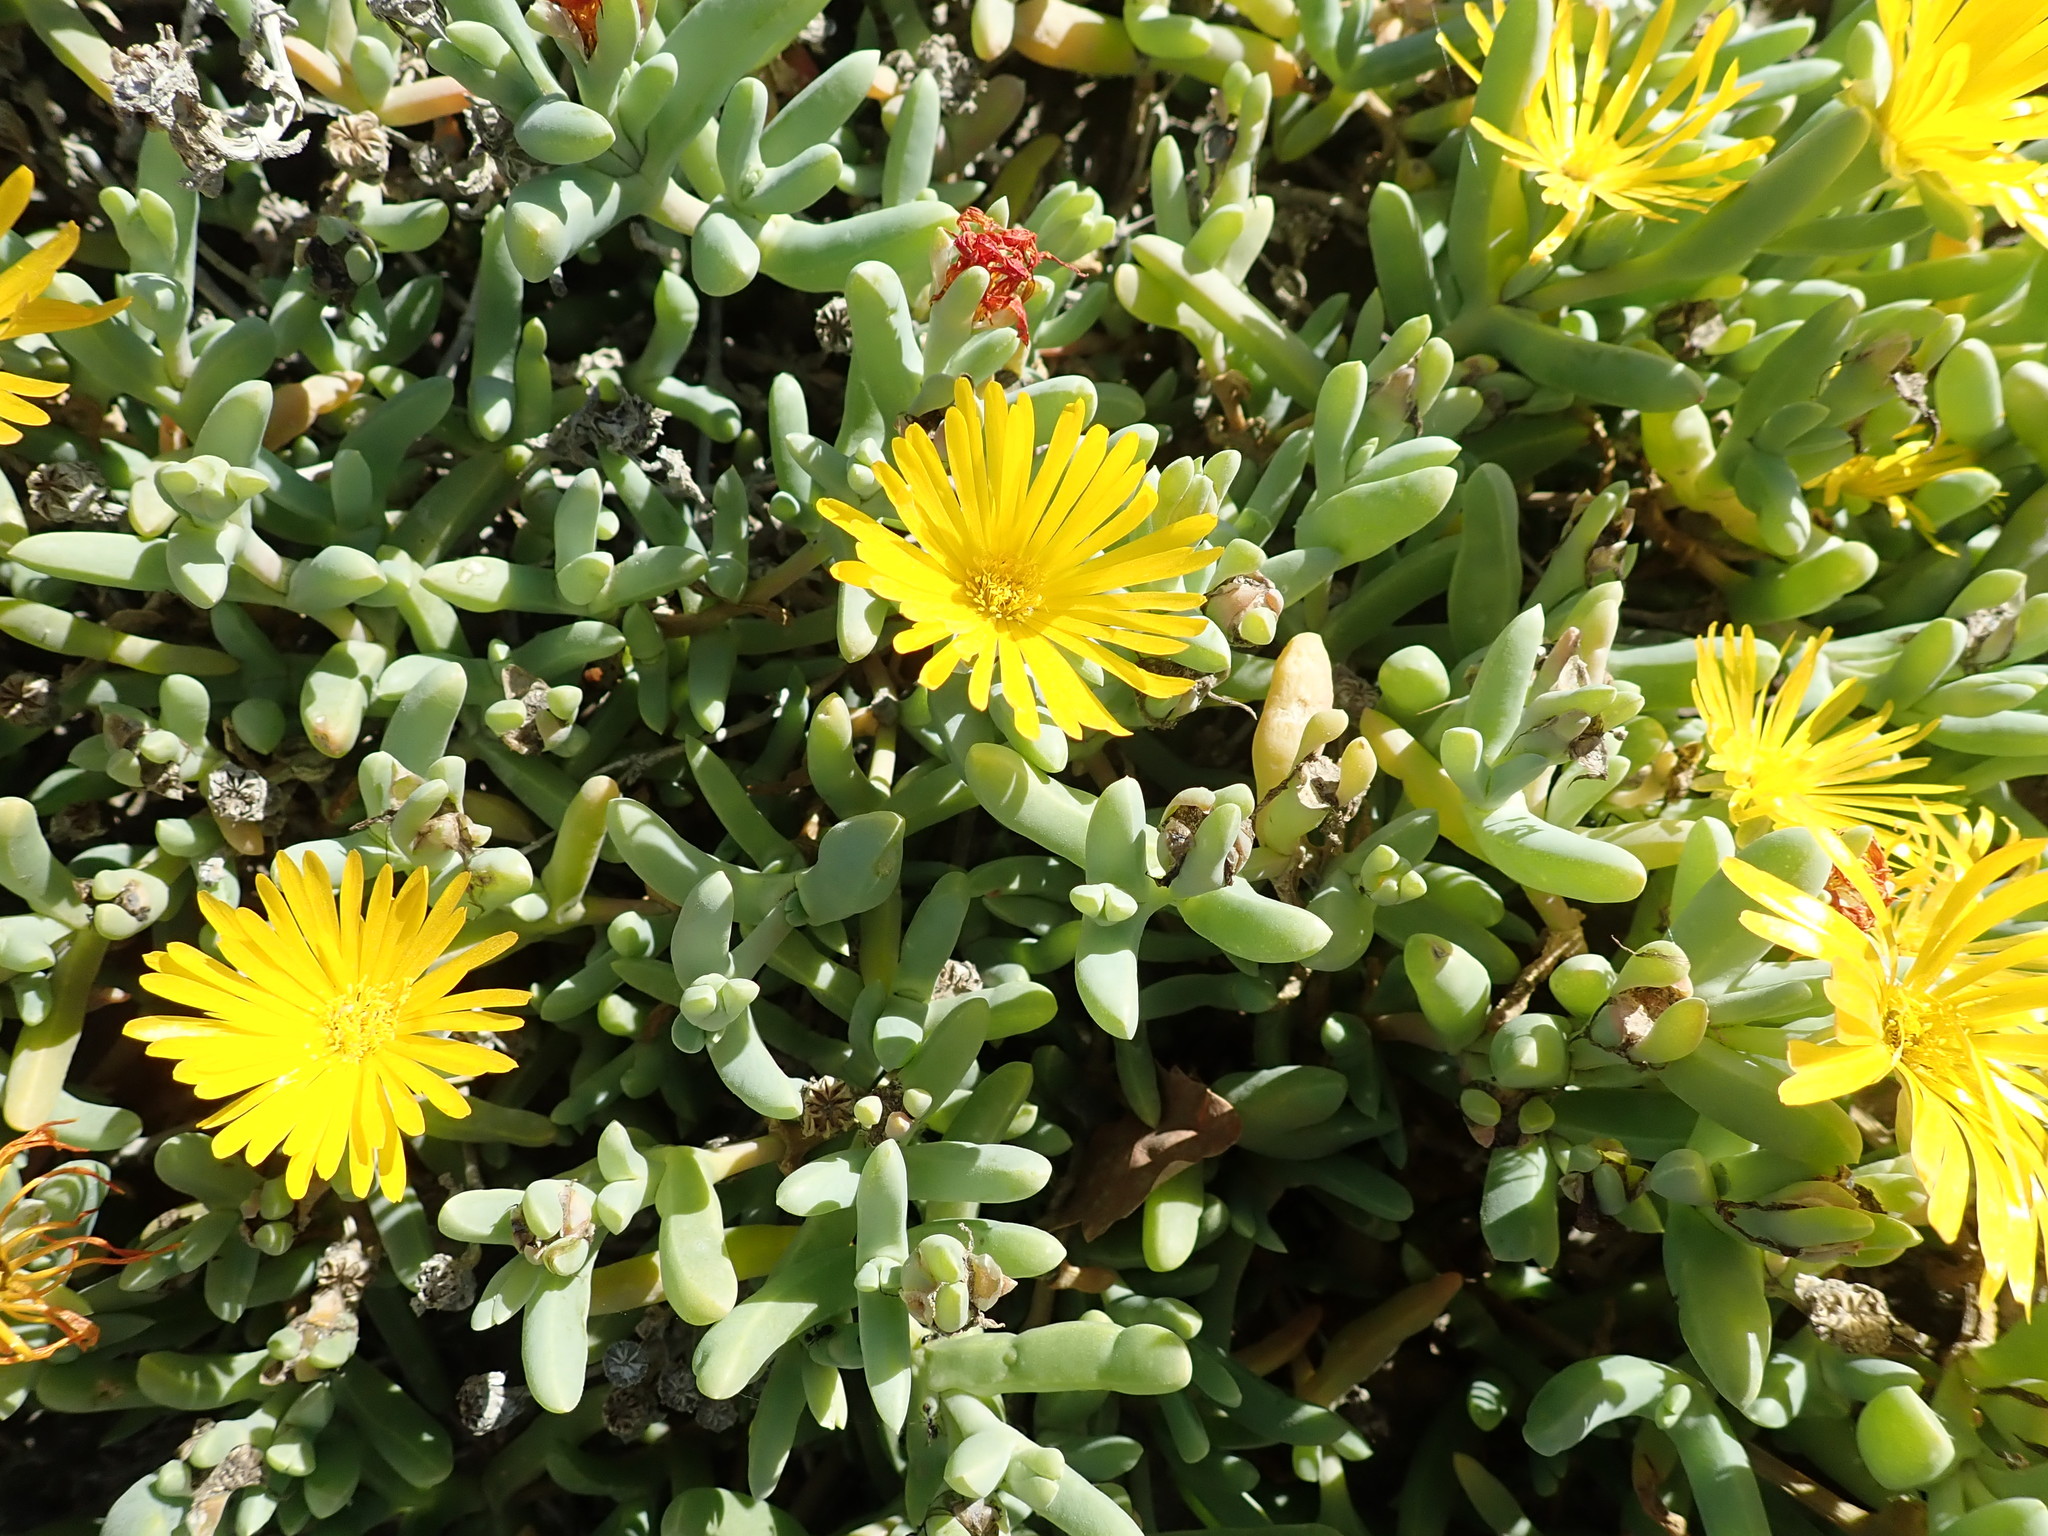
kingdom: Plantae
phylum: Tracheophyta
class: Magnoliopsida
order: Caryophyllales
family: Aizoaceae
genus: Malephora
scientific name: Malephora lutea
